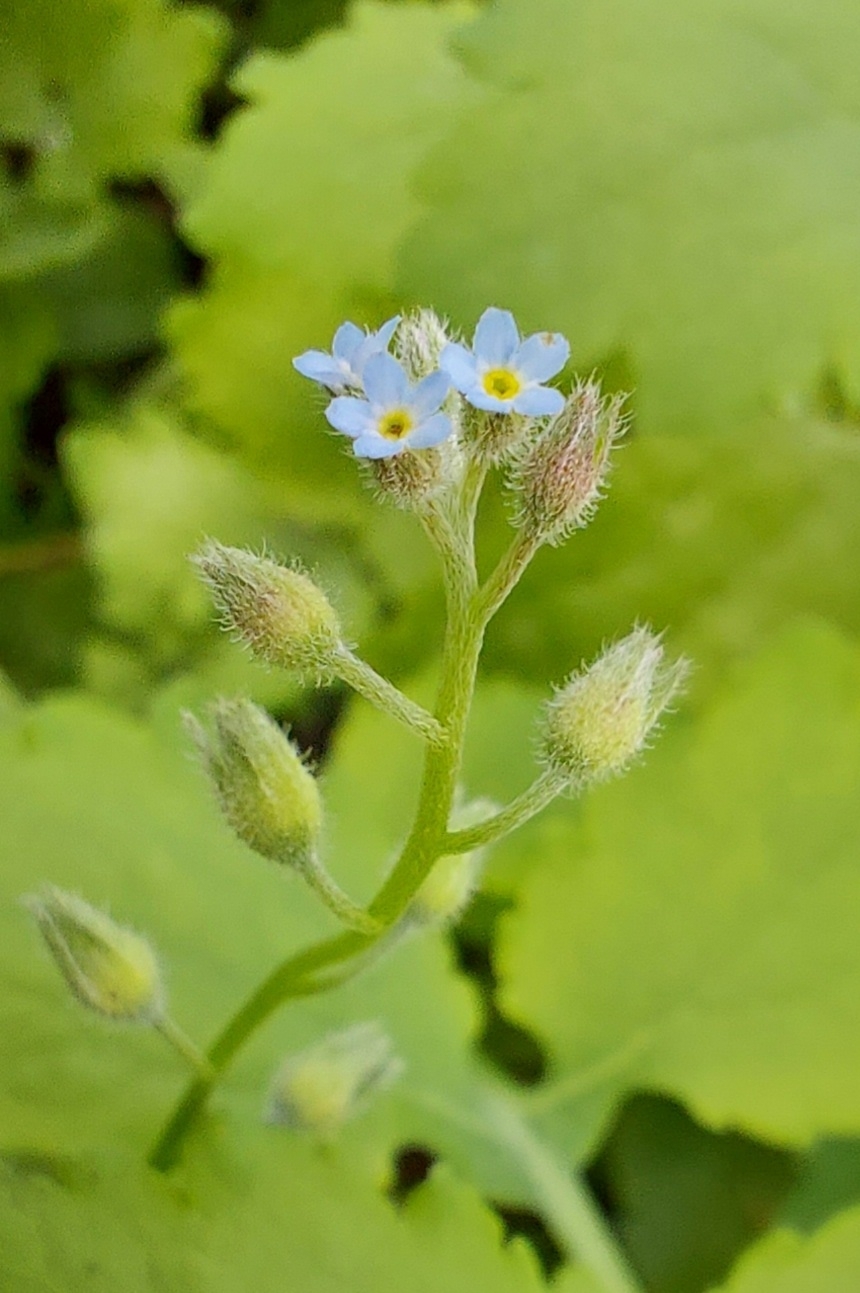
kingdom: Plantae
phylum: Tracheophyta
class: Magnoliopsida
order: Boraginales
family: Boraginaceae
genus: Myosotis
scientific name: Myosotis arvensis
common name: Field forget-me-not
